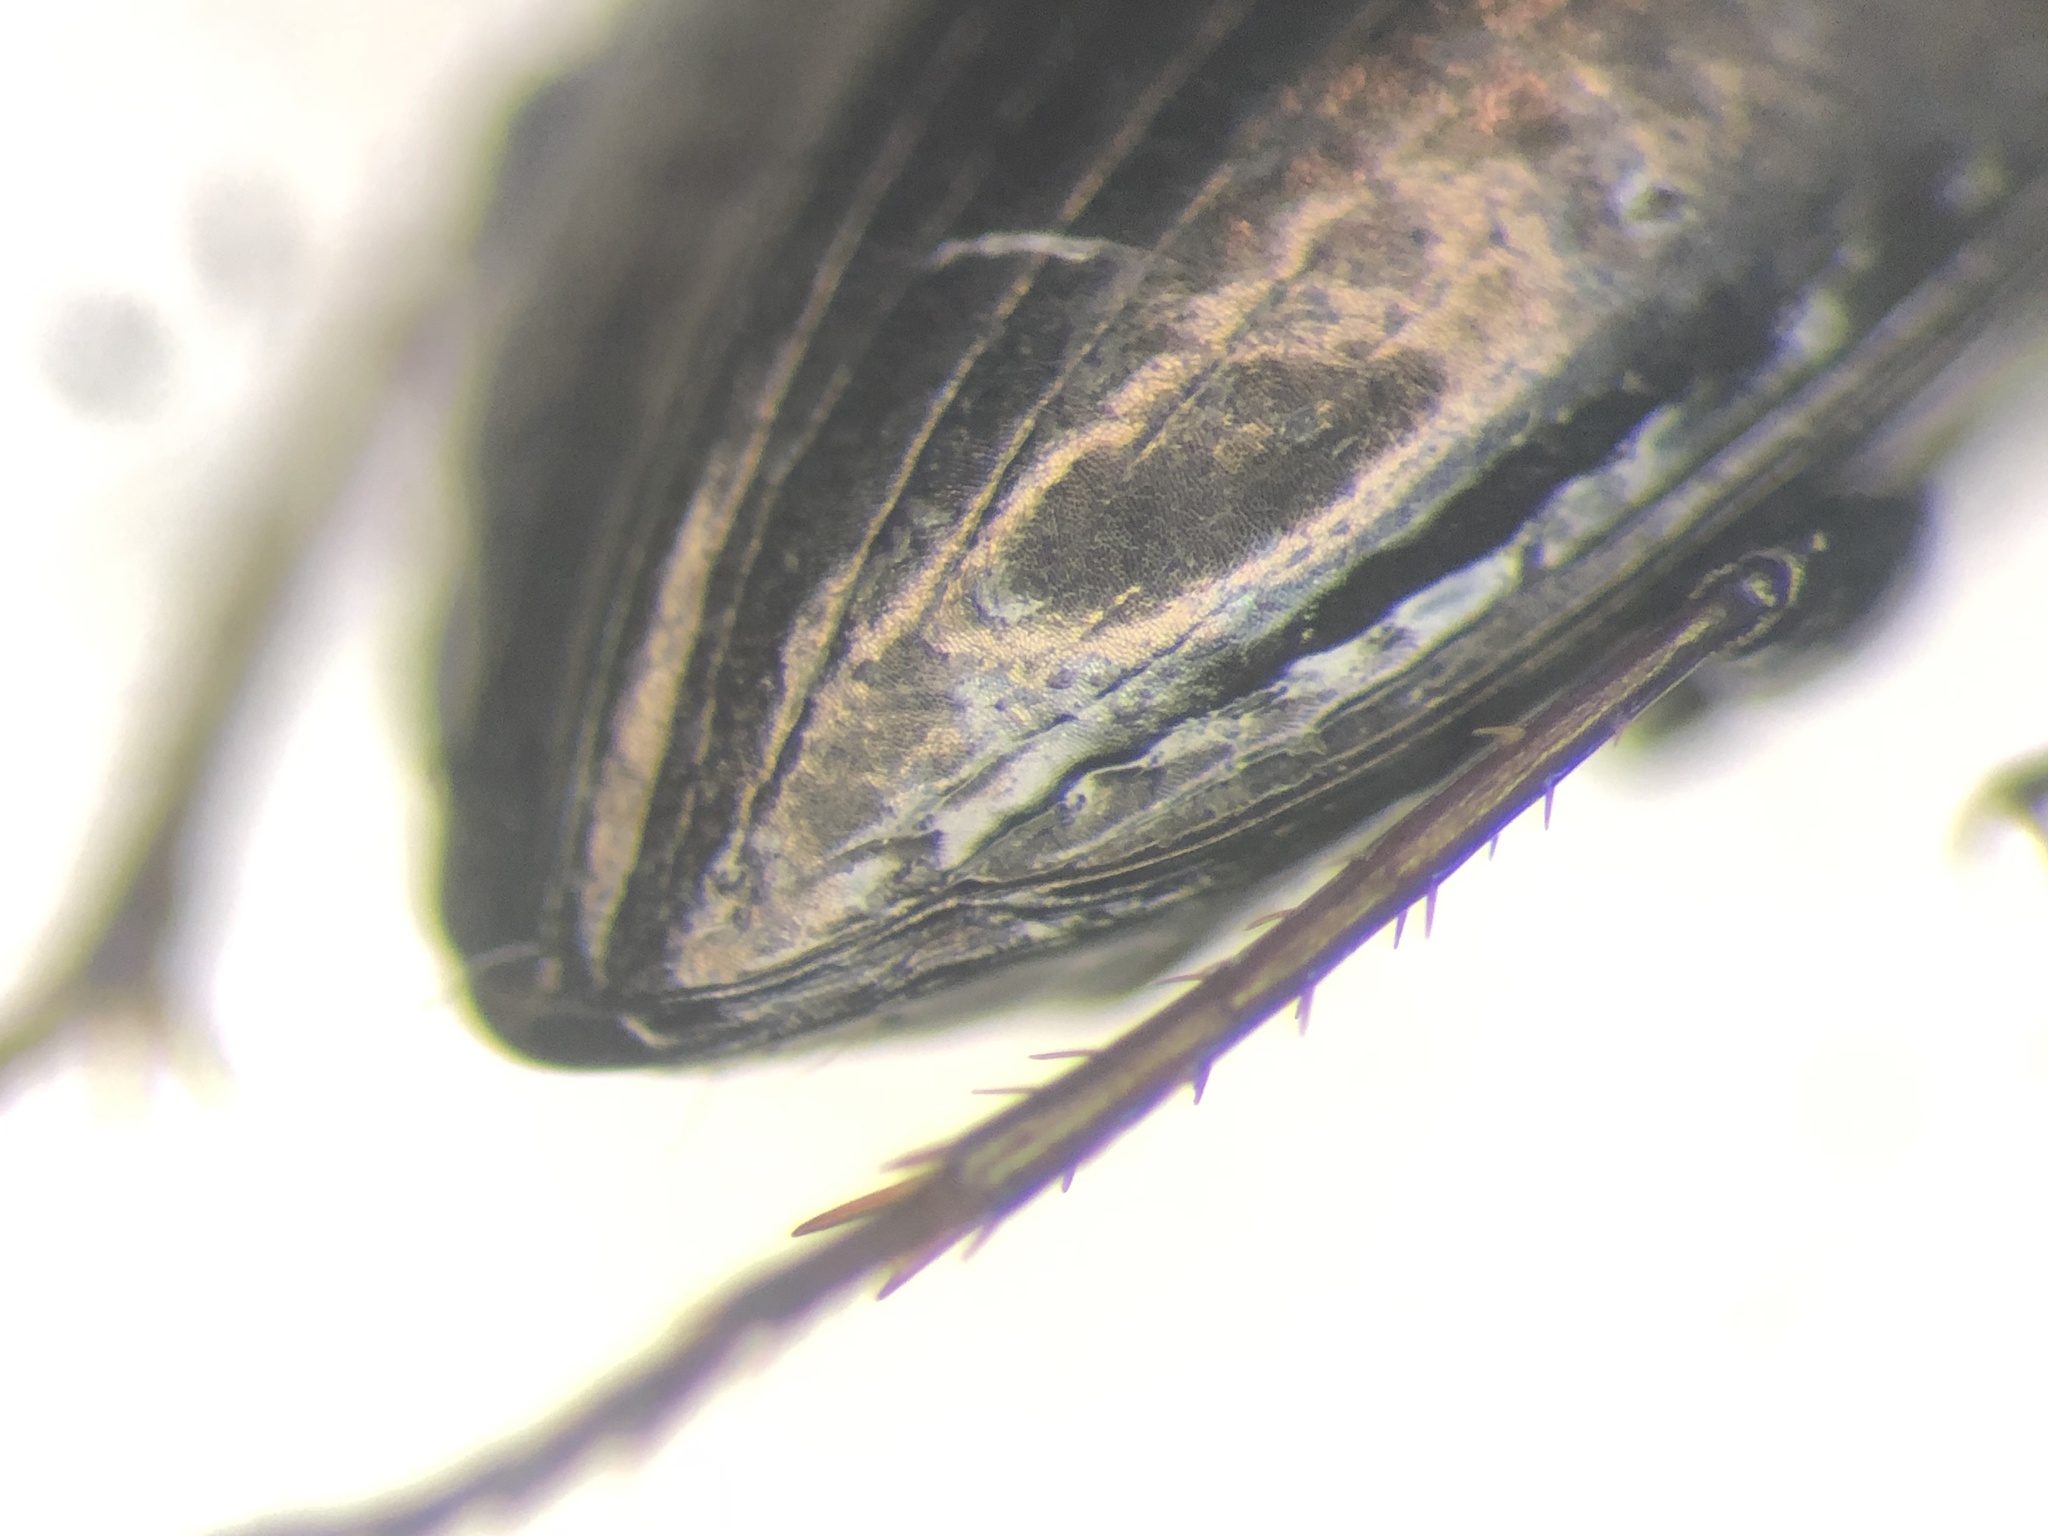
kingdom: Animalia
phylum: Arthropoda
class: Insecta
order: Coleoptera
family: Carabidae
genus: Amara
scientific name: Amara glacialis
